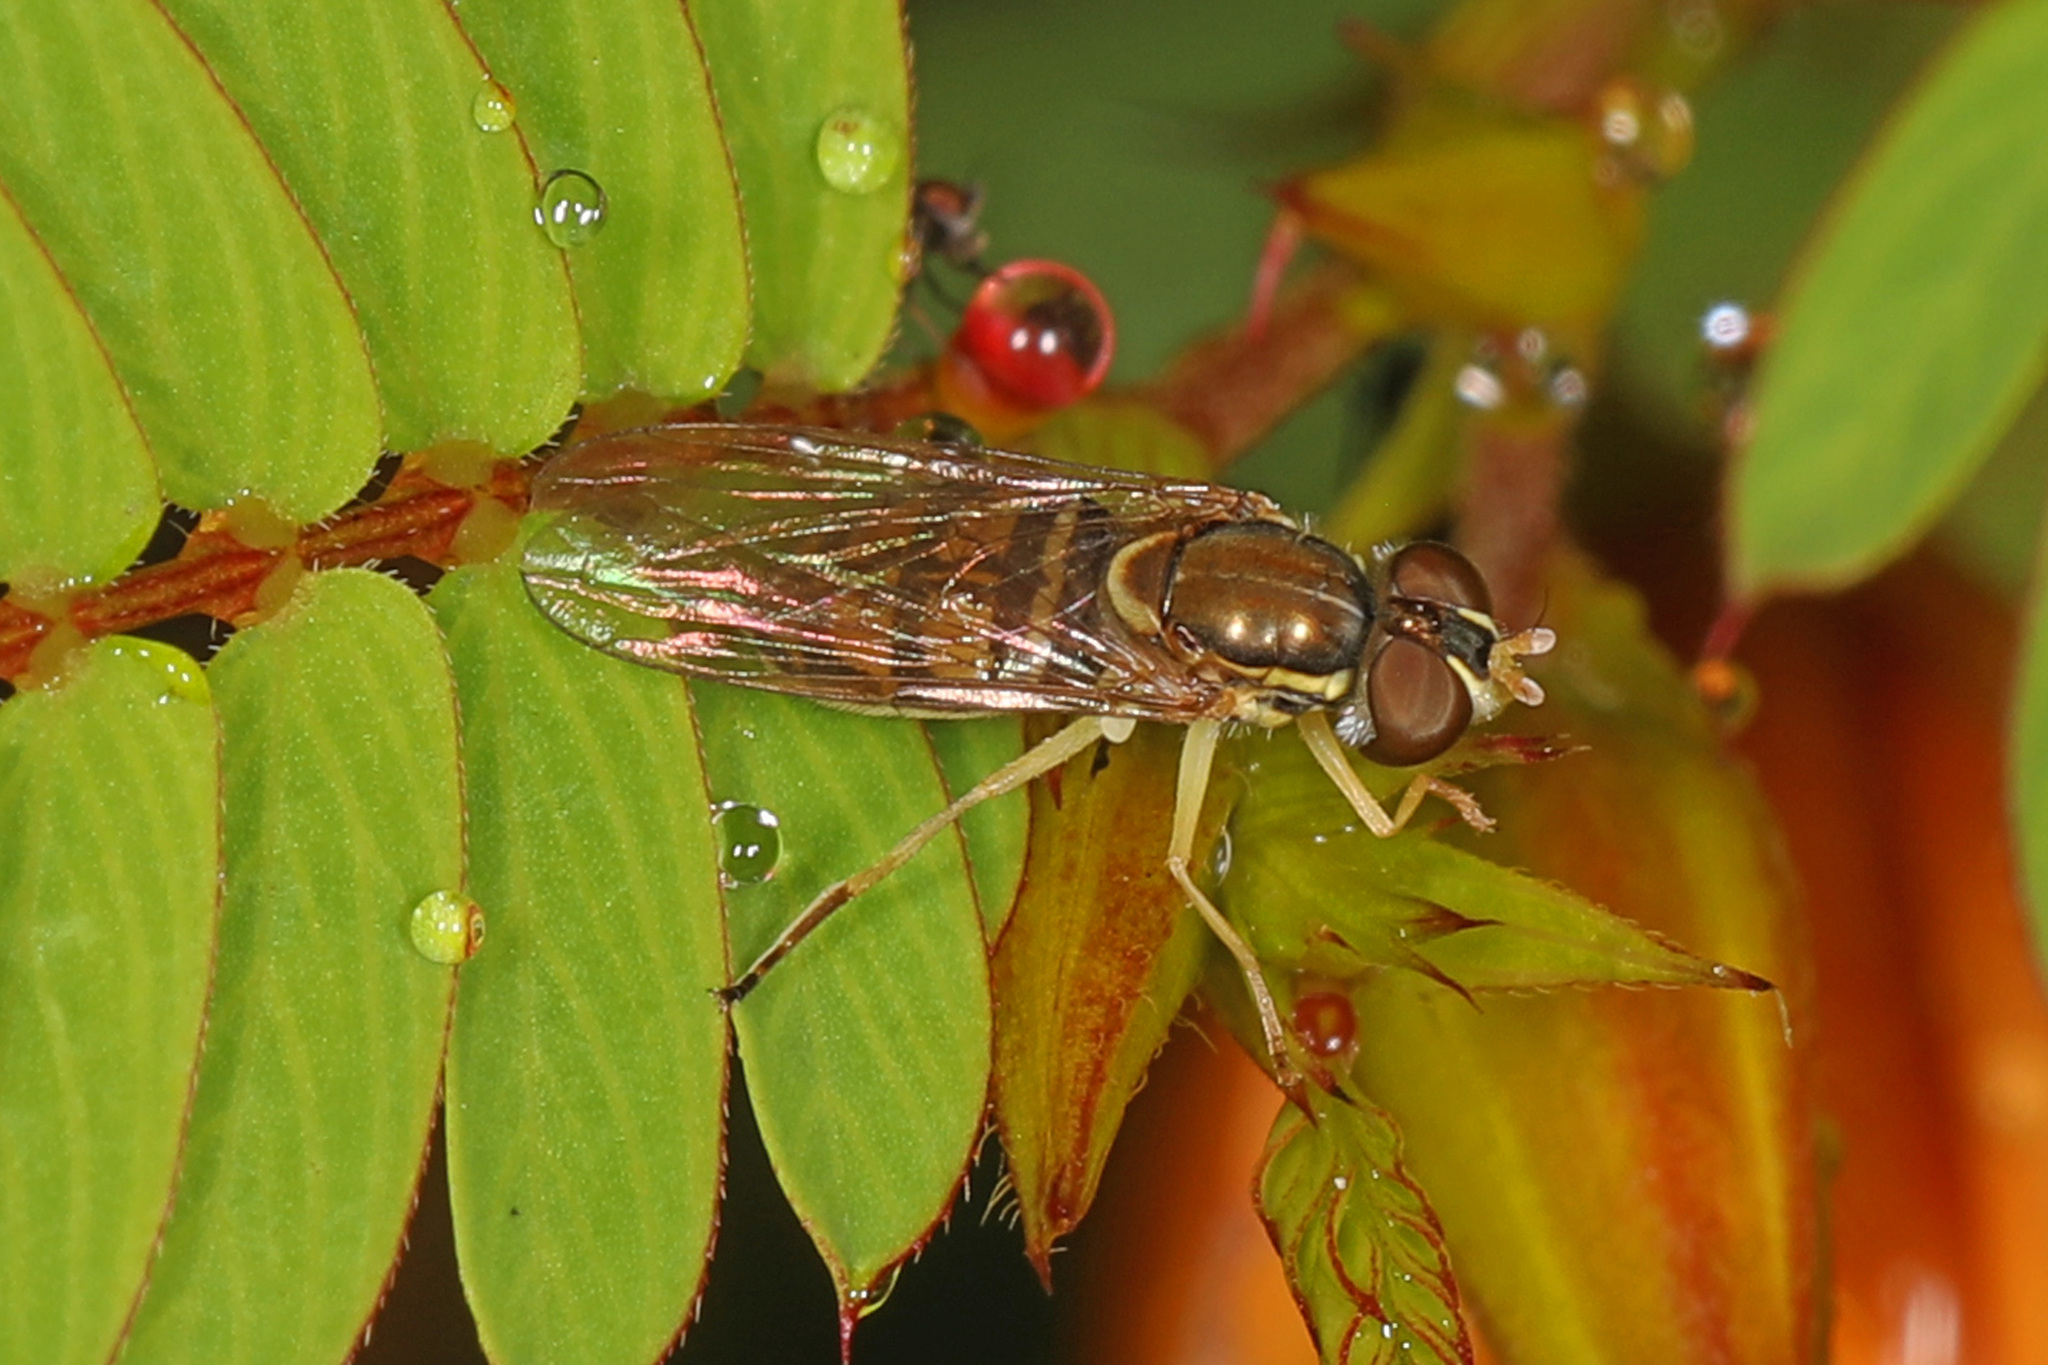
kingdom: Animalia
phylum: Arthropoda
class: Insecta
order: Diptera
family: Syrphidae
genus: Toxomerus
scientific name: Toxomerus marginatus
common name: Syrphid fly
